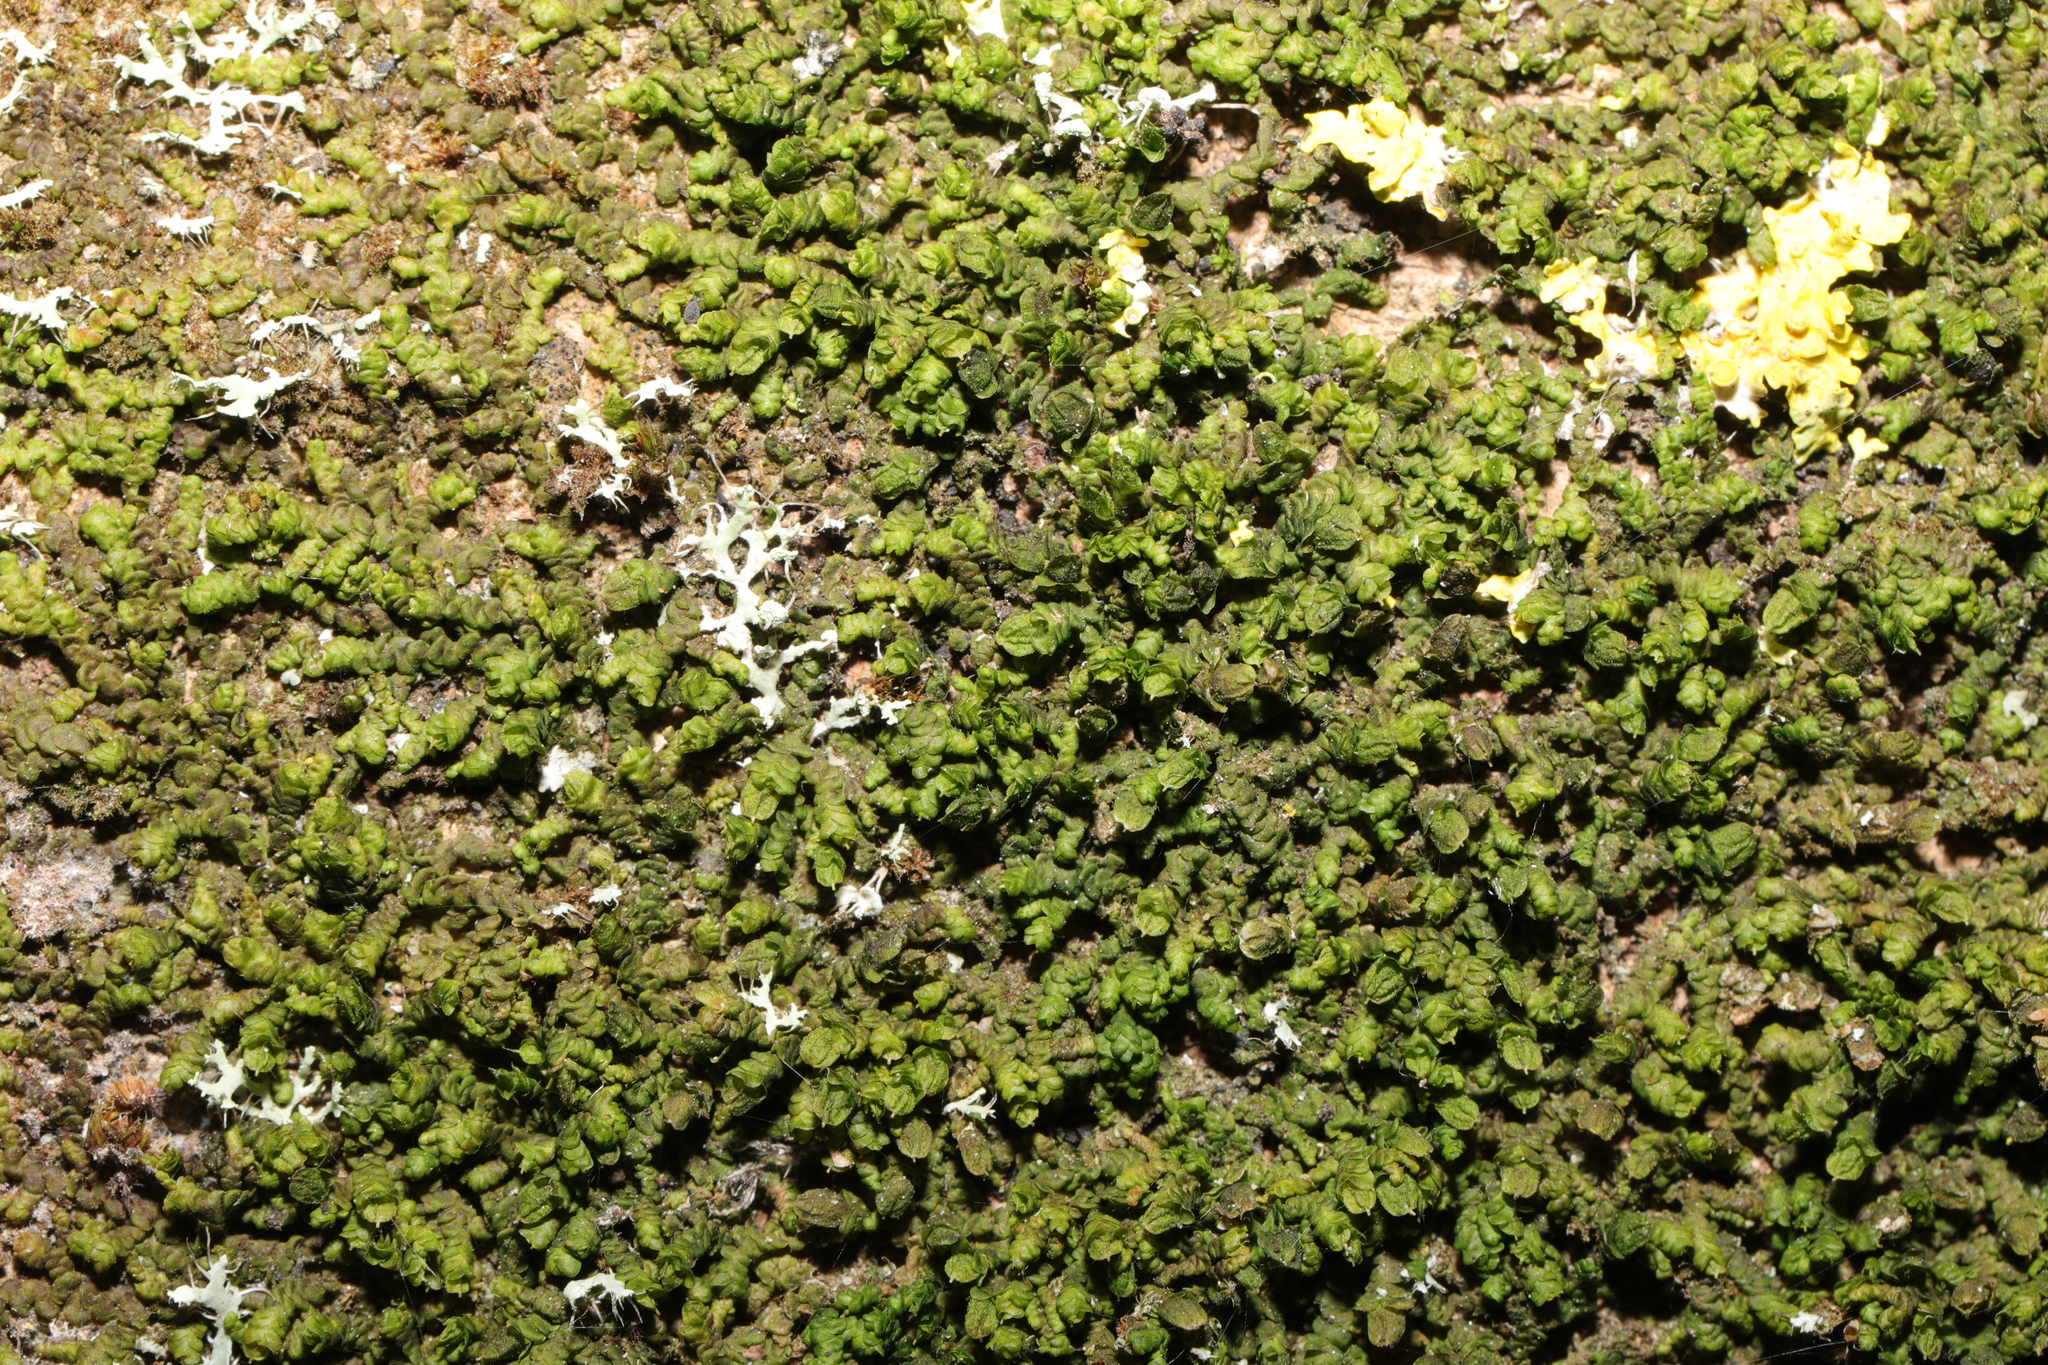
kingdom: Plantae
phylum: Marchantiophyta
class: Jungermanniopsida
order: Porellales
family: Frullaniaceae
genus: Frullania
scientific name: Frullania dilatata
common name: Dilated scalewort
